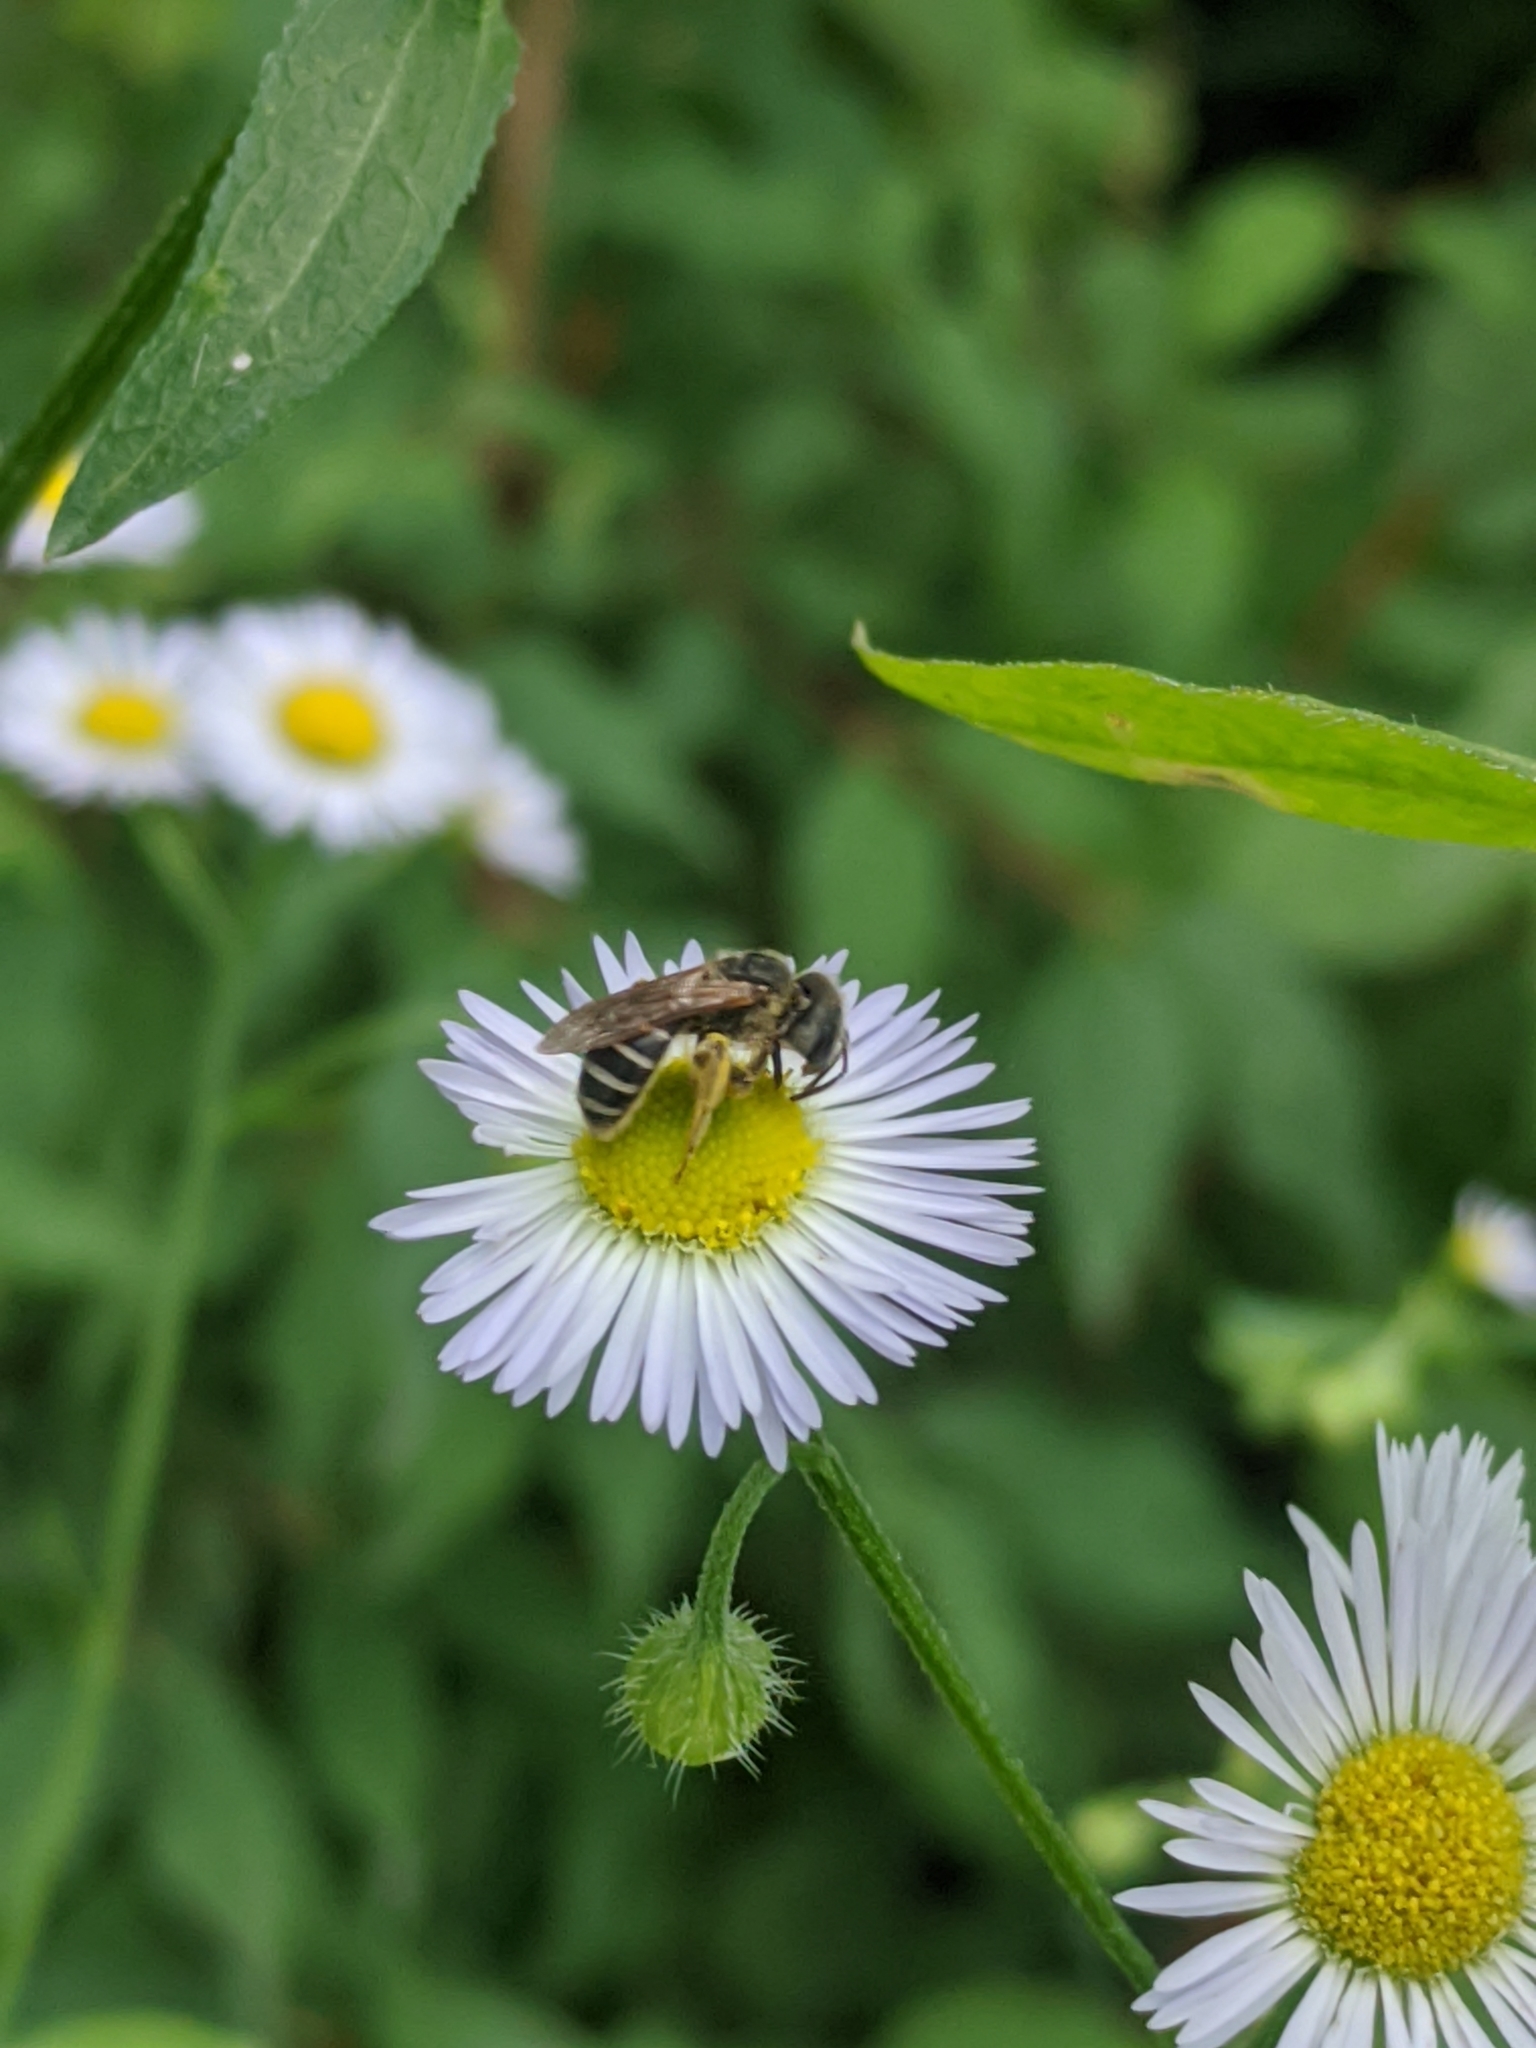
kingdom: Animalia
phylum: Arthropoda
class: Insecta
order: Hymenoptera
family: Halictidae
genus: Halictus
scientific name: Halictus ligatus
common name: Ligated furrow bee
